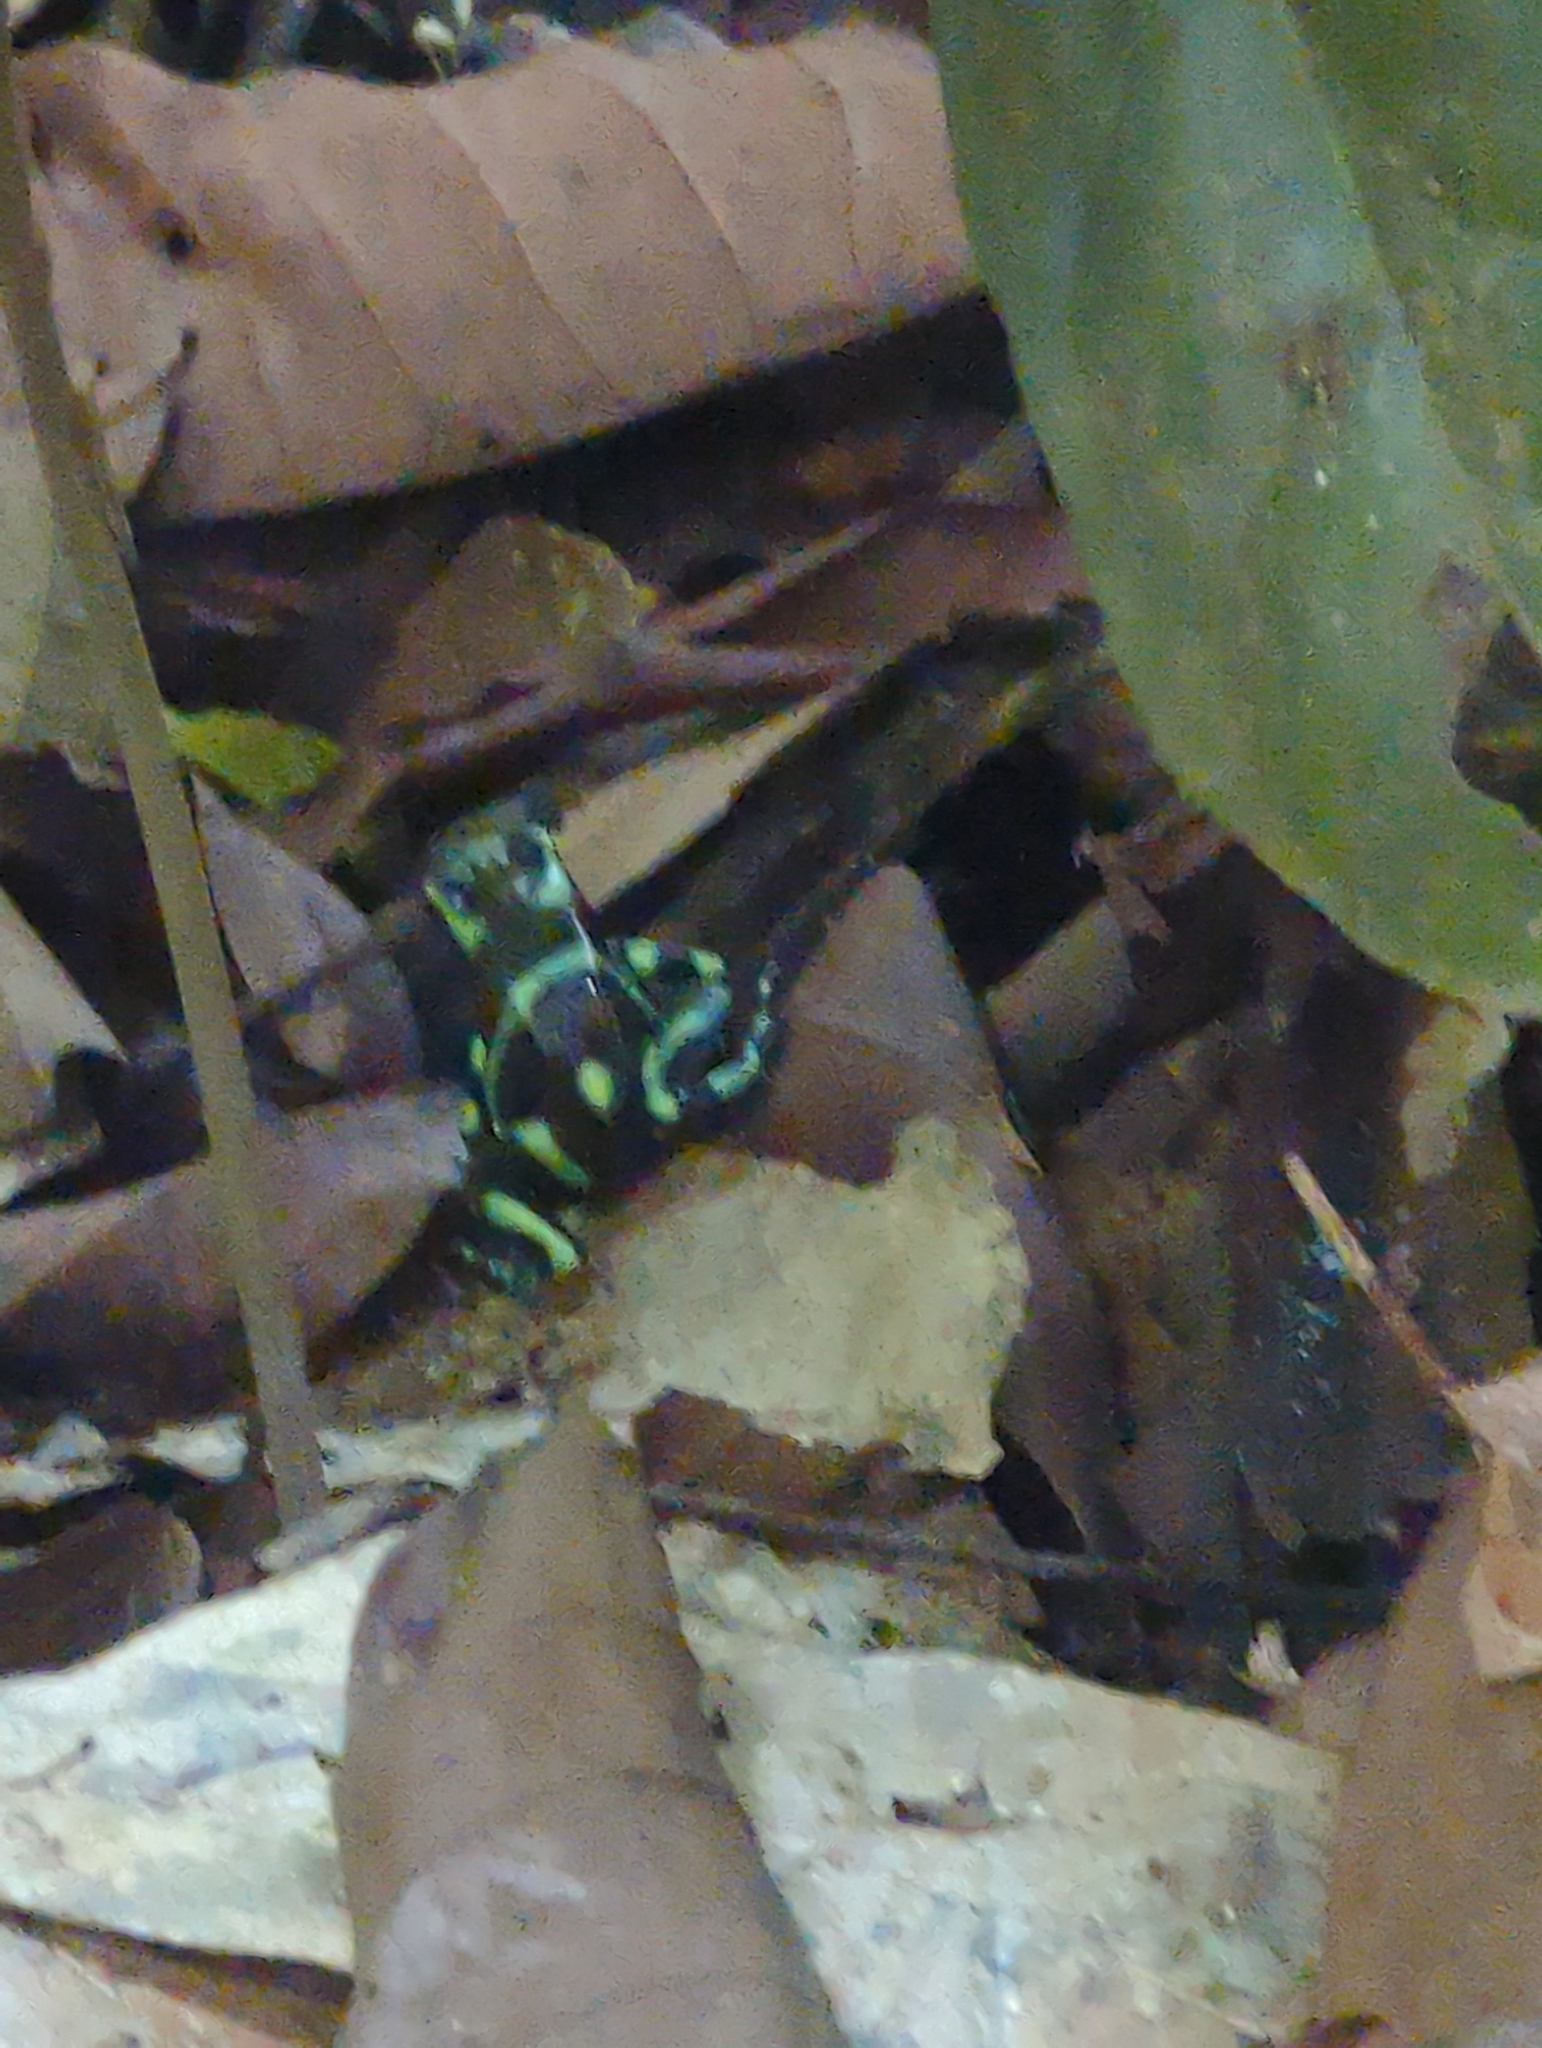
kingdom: Animalia
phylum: Chordata
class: Amphibia
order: Anura
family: Dendrobatidae
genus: Dendrobates
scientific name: Dendrobates auratus
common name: Green and black poison dart frog
